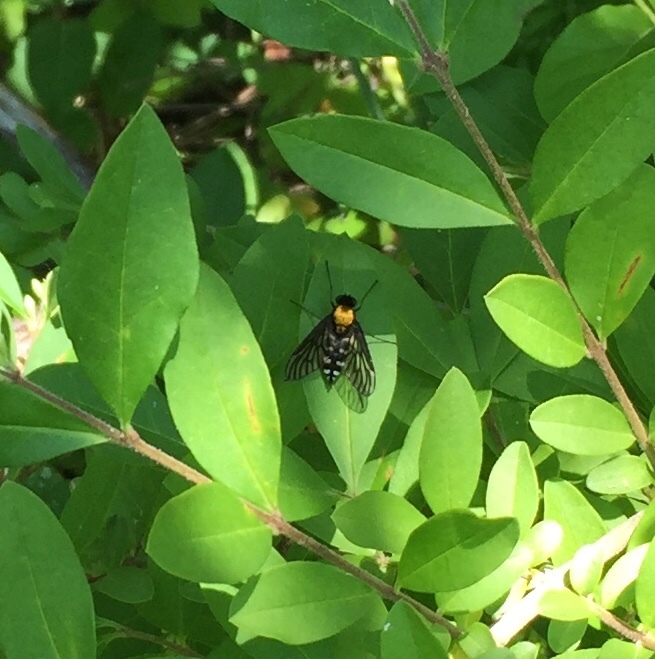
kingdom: Animalia
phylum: Arthropoda
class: Insecta
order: Diptera
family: Rhagionidae
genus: Chrysopilus
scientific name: Chrysopilus thoracicus
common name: Golden-backed snipe fly
